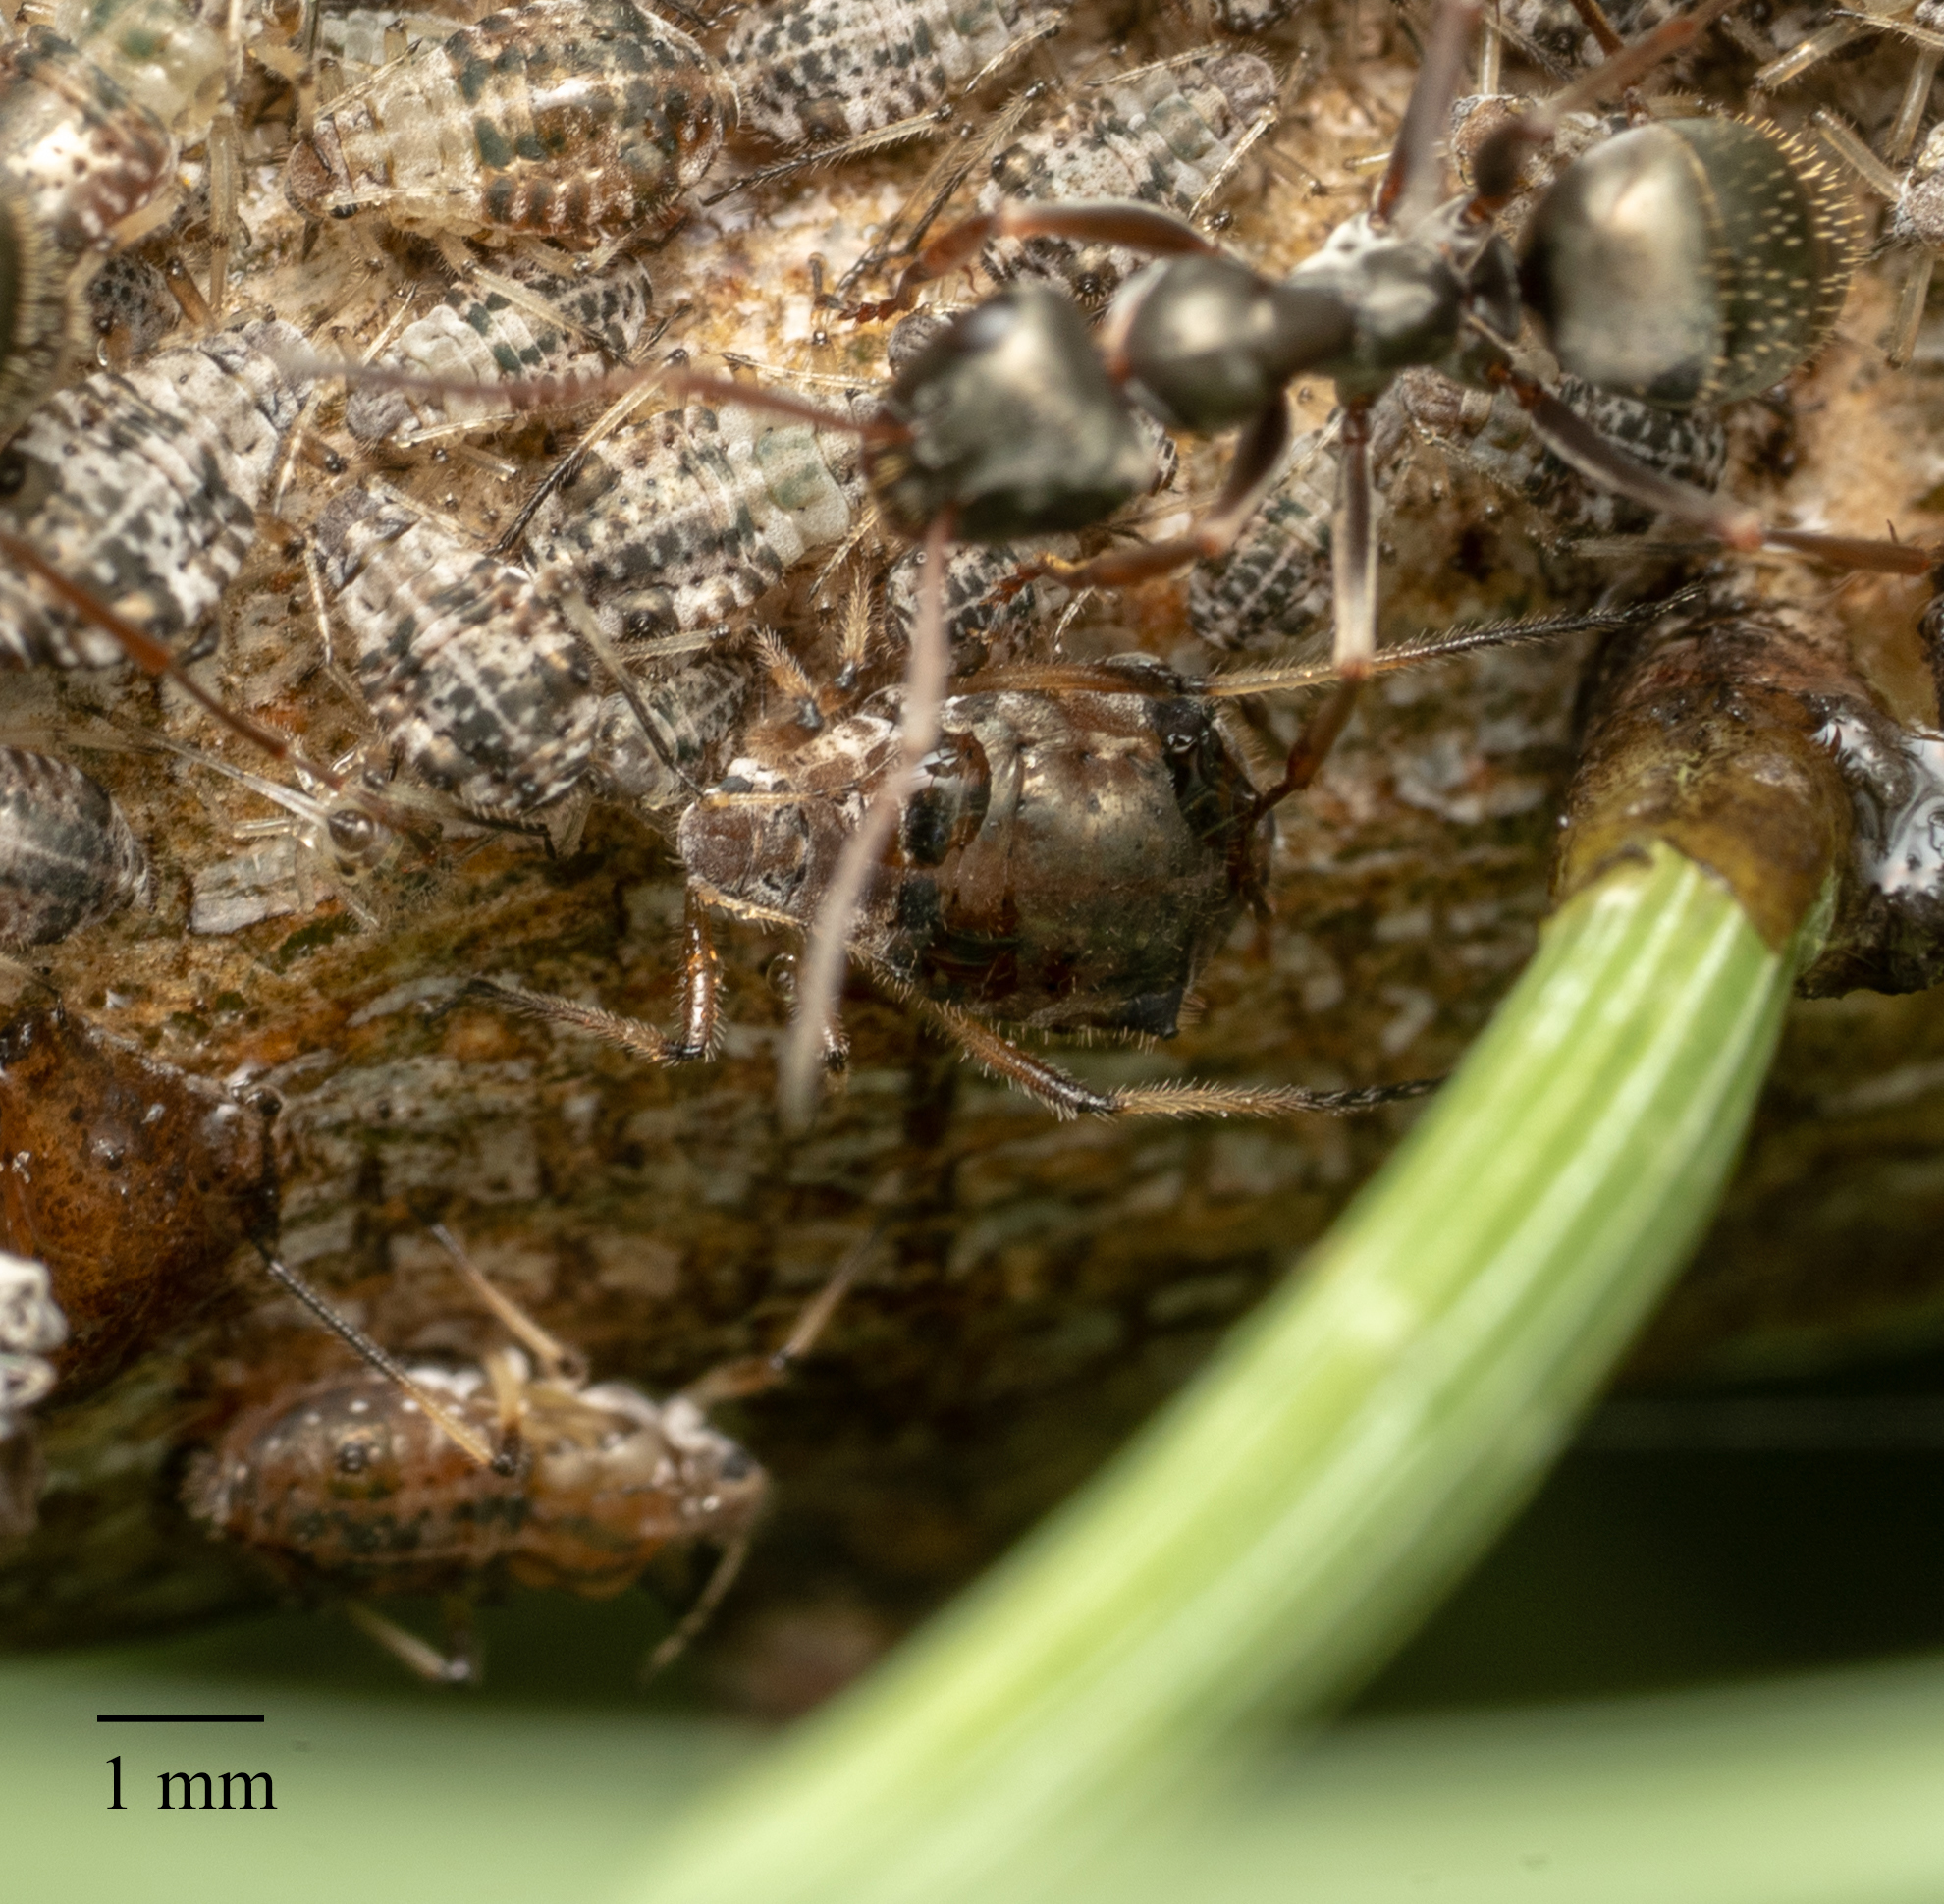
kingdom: Animalia
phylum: Arthropoda
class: Insecta
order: Hemiptera
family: Aphididae
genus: Cinara
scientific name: Cinara anelia
